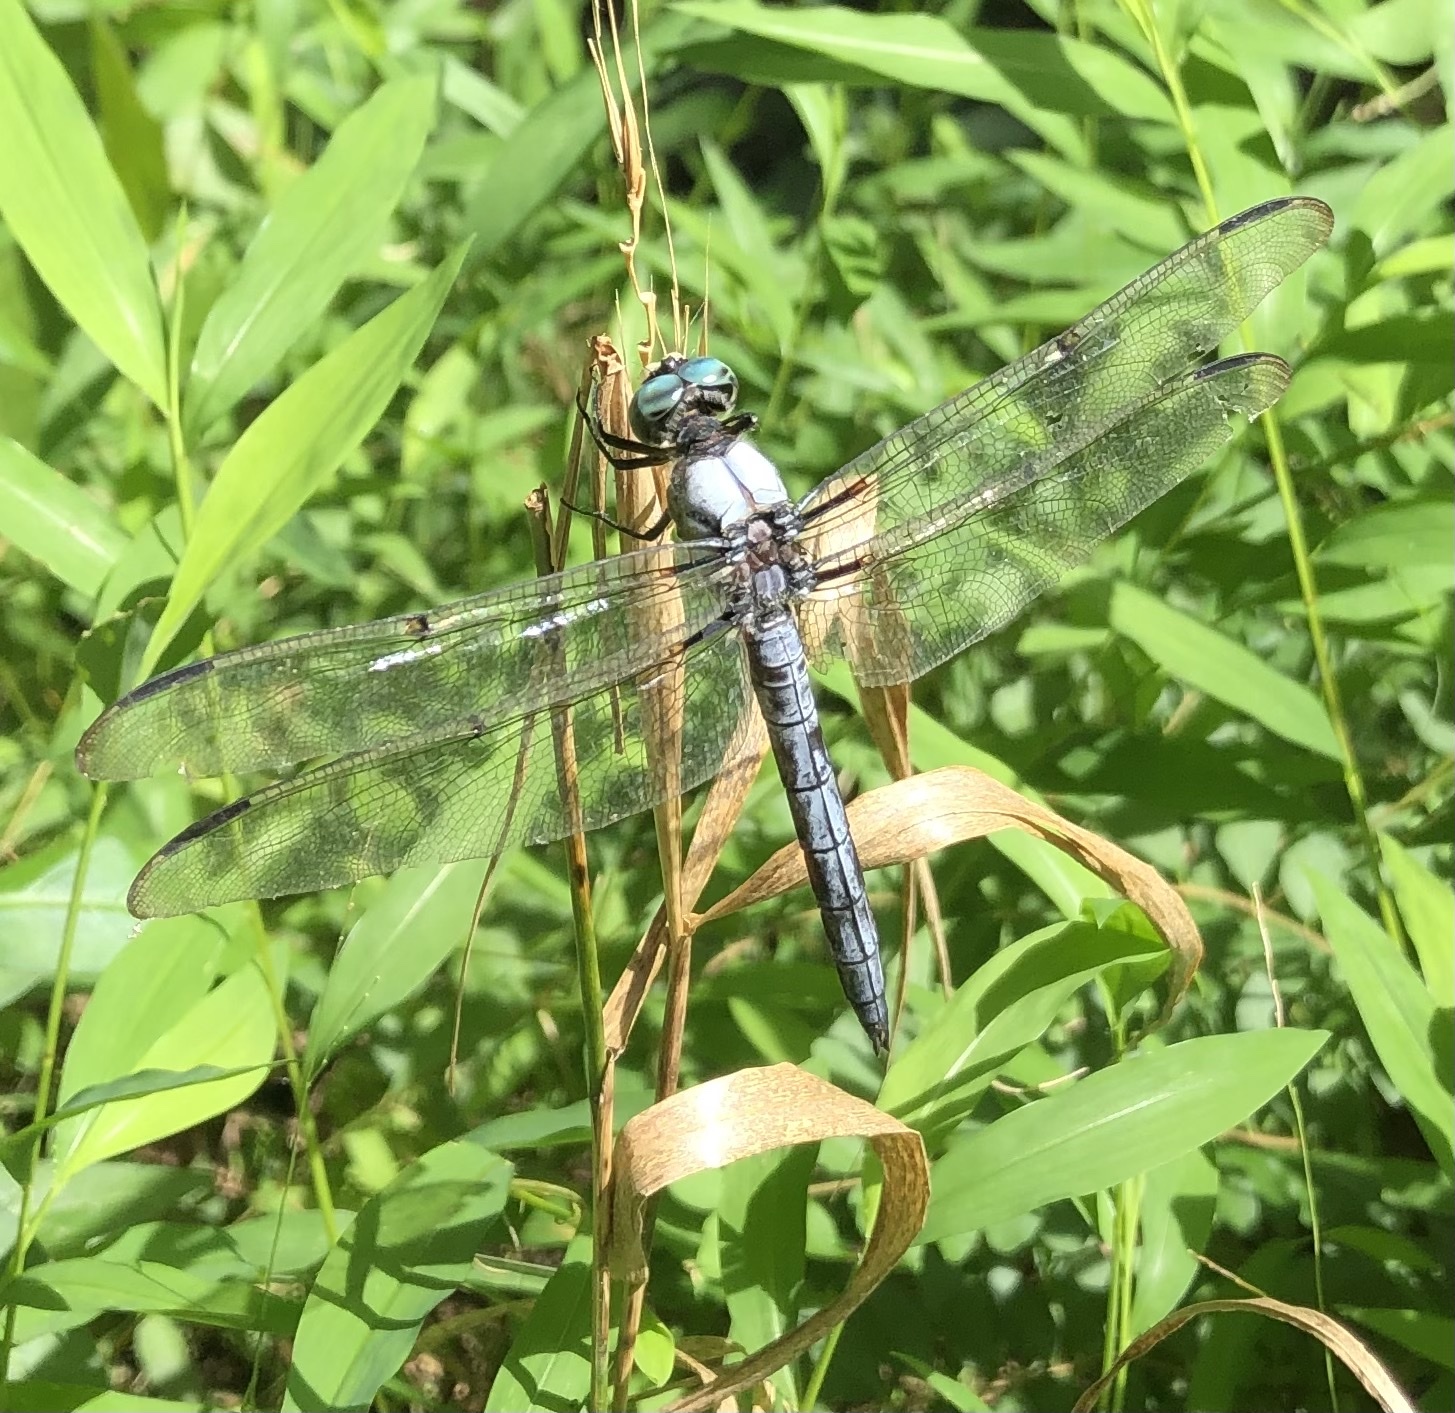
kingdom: Animalia
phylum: Arthropoda
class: Insecta
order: Odonata
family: Libellulidae
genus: Libellula
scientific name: Libellula vibrans
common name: Great blue skimmer
